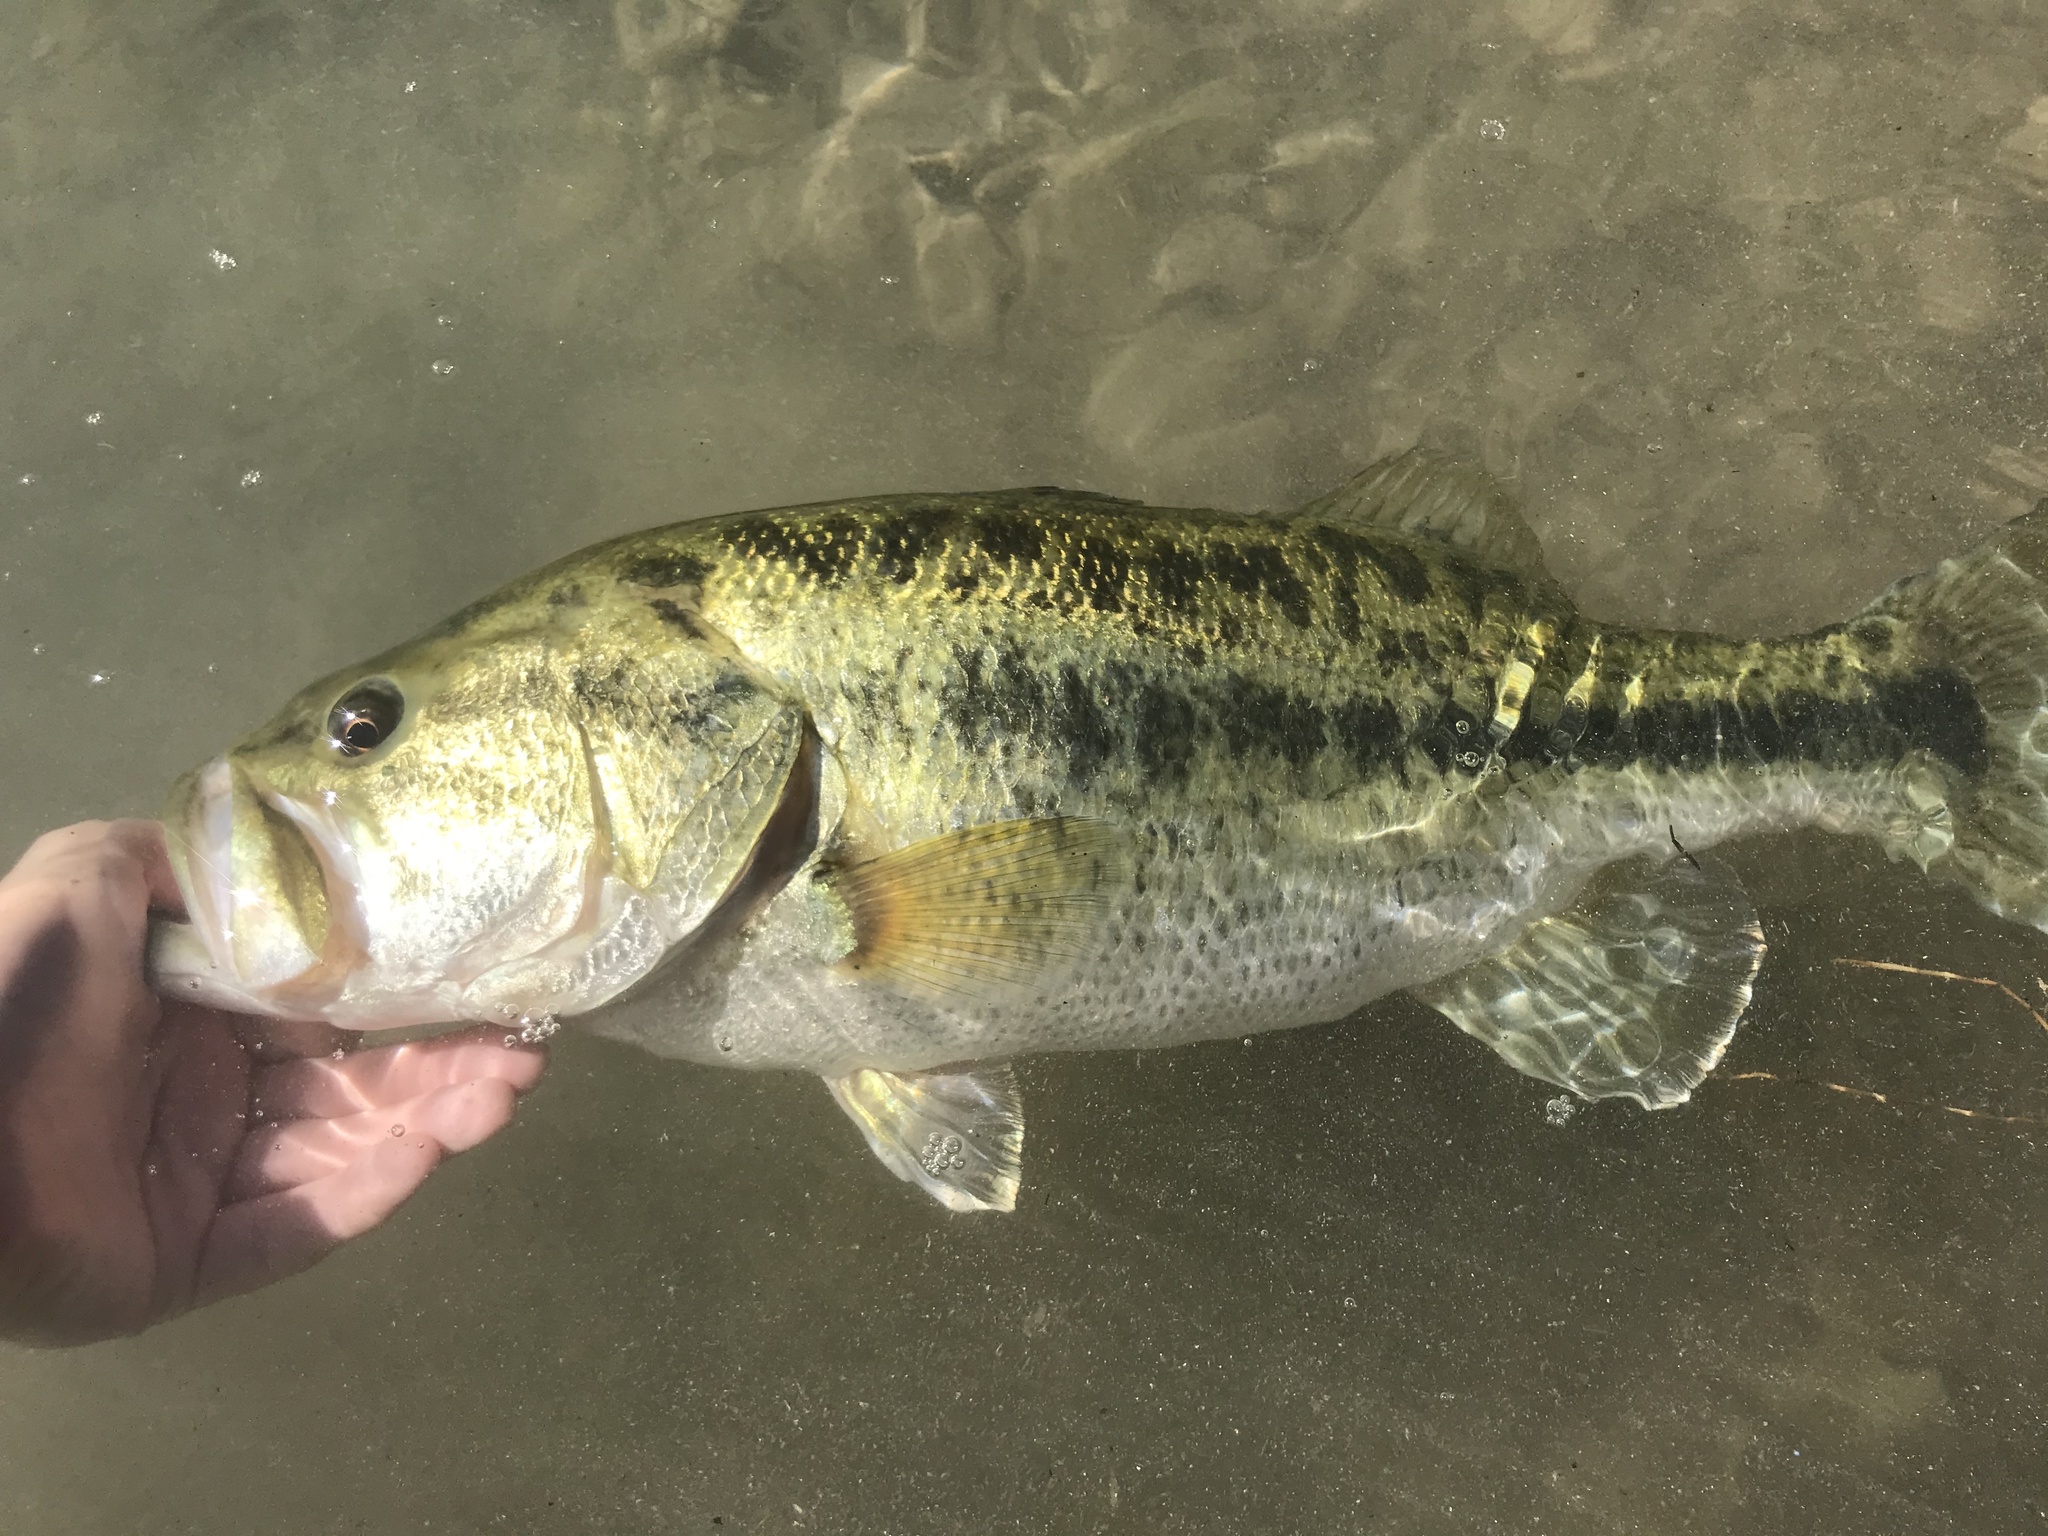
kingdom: Animalia
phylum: Chordata
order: Perciformes
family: Centrarchidae
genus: Micropterus
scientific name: Micropterus
